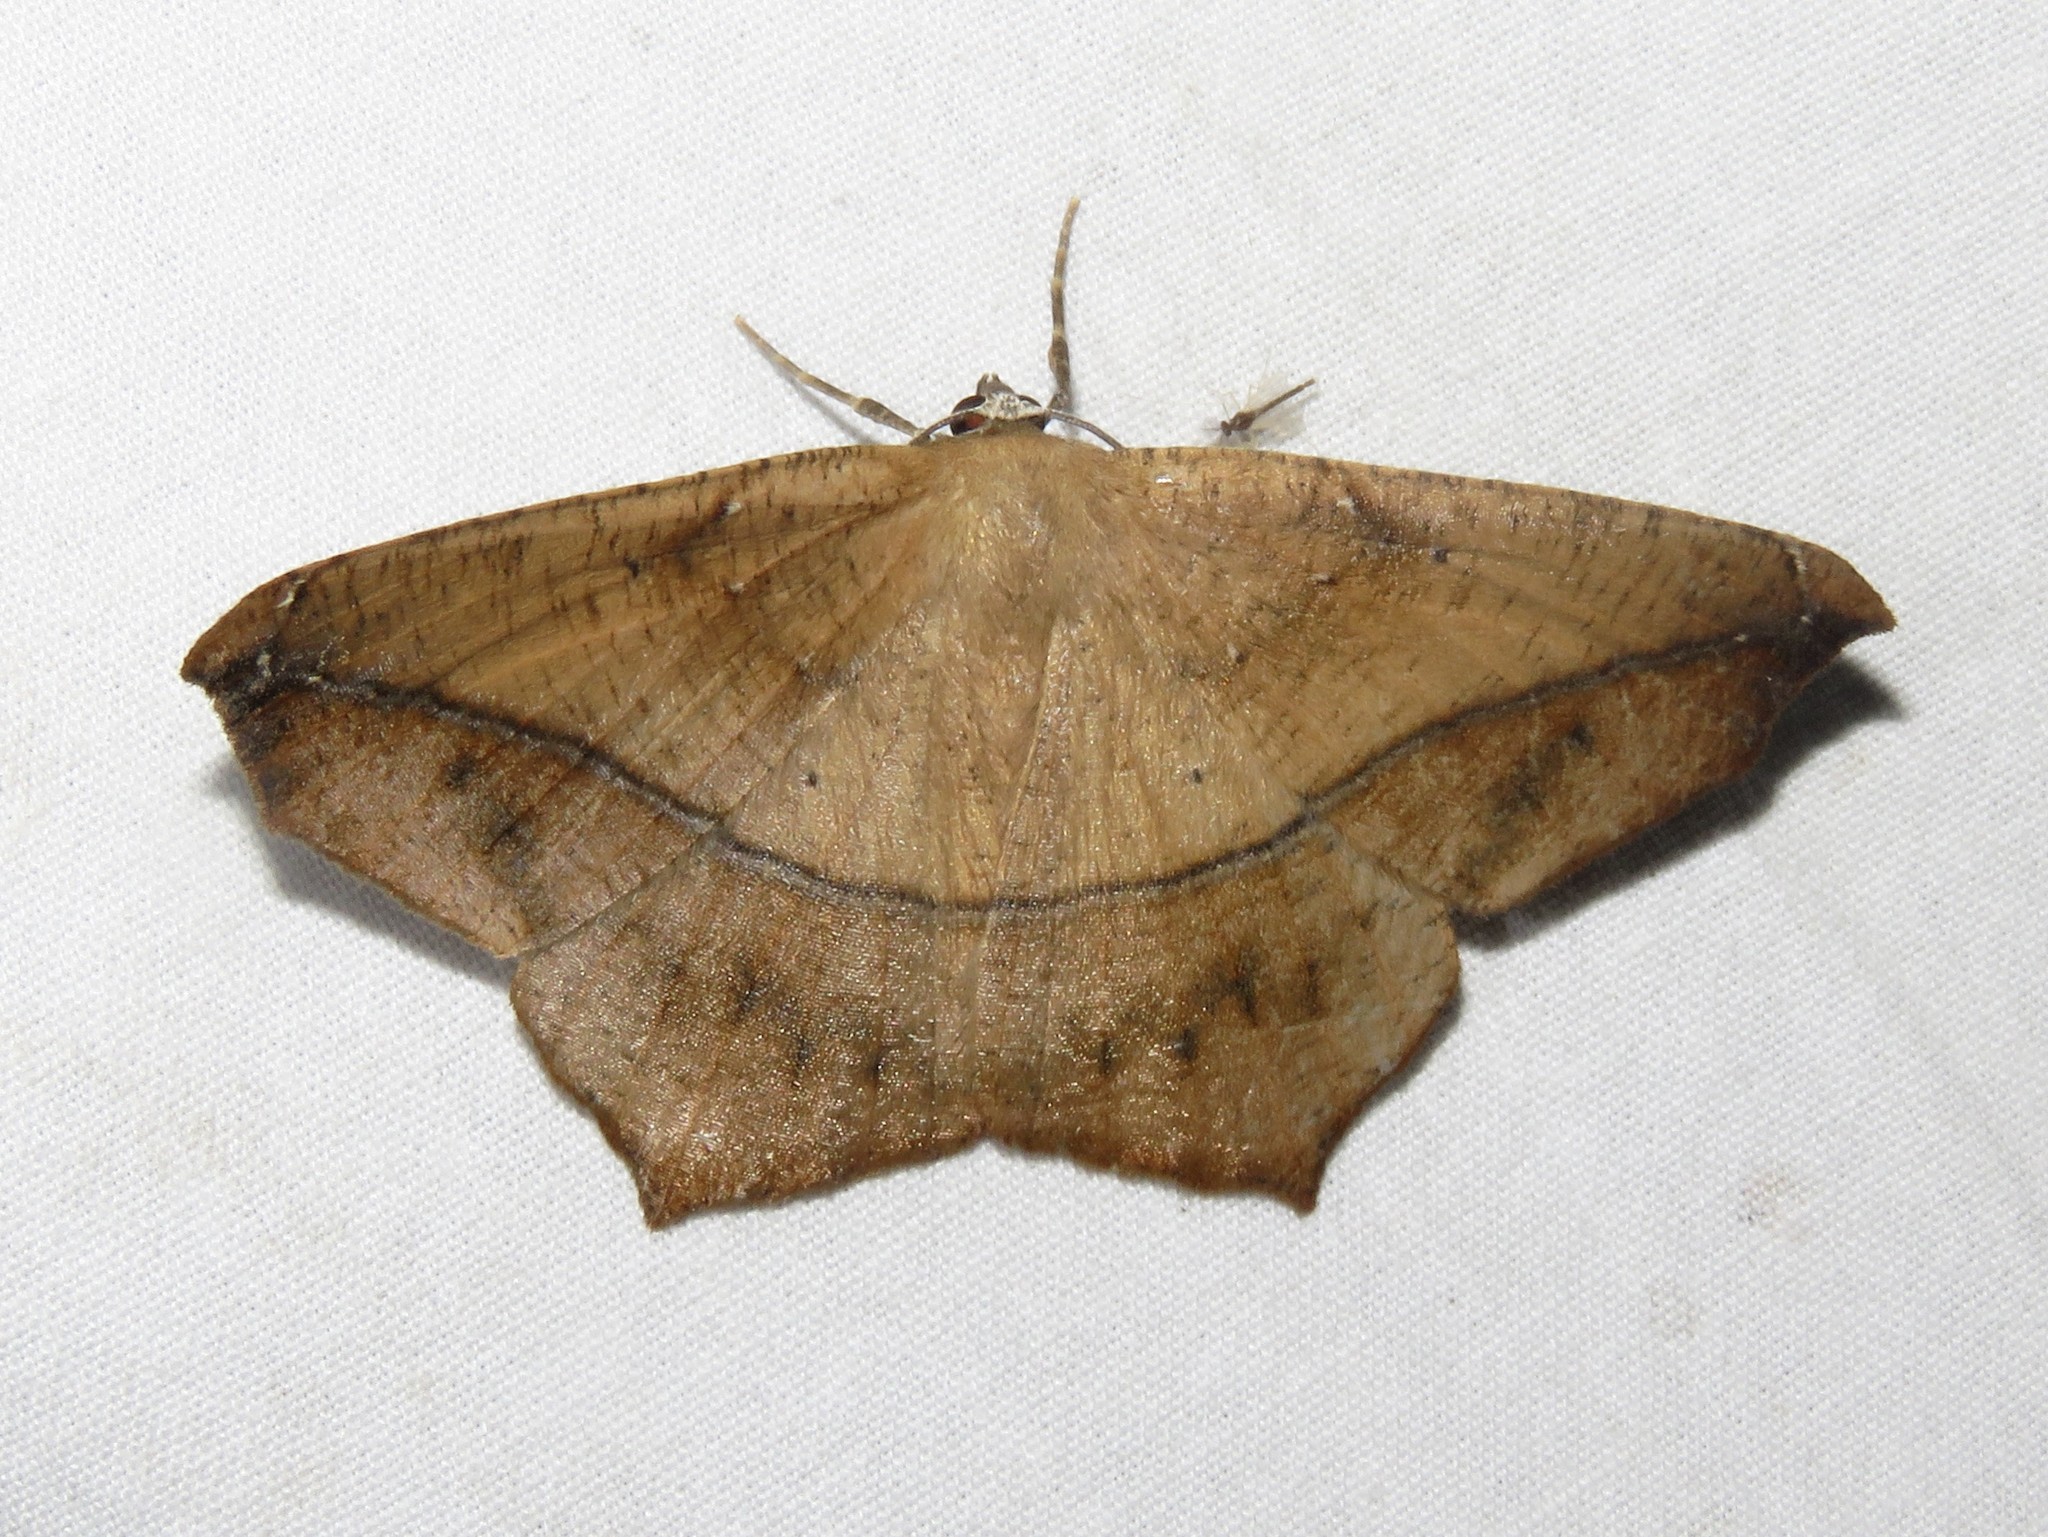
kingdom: Animalia
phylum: Arthropoda
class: Insecta
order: Lepidoptera
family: Geometridae
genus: Prochoerodes
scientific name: Prochoerodes lineola
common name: Large maple spanworm
